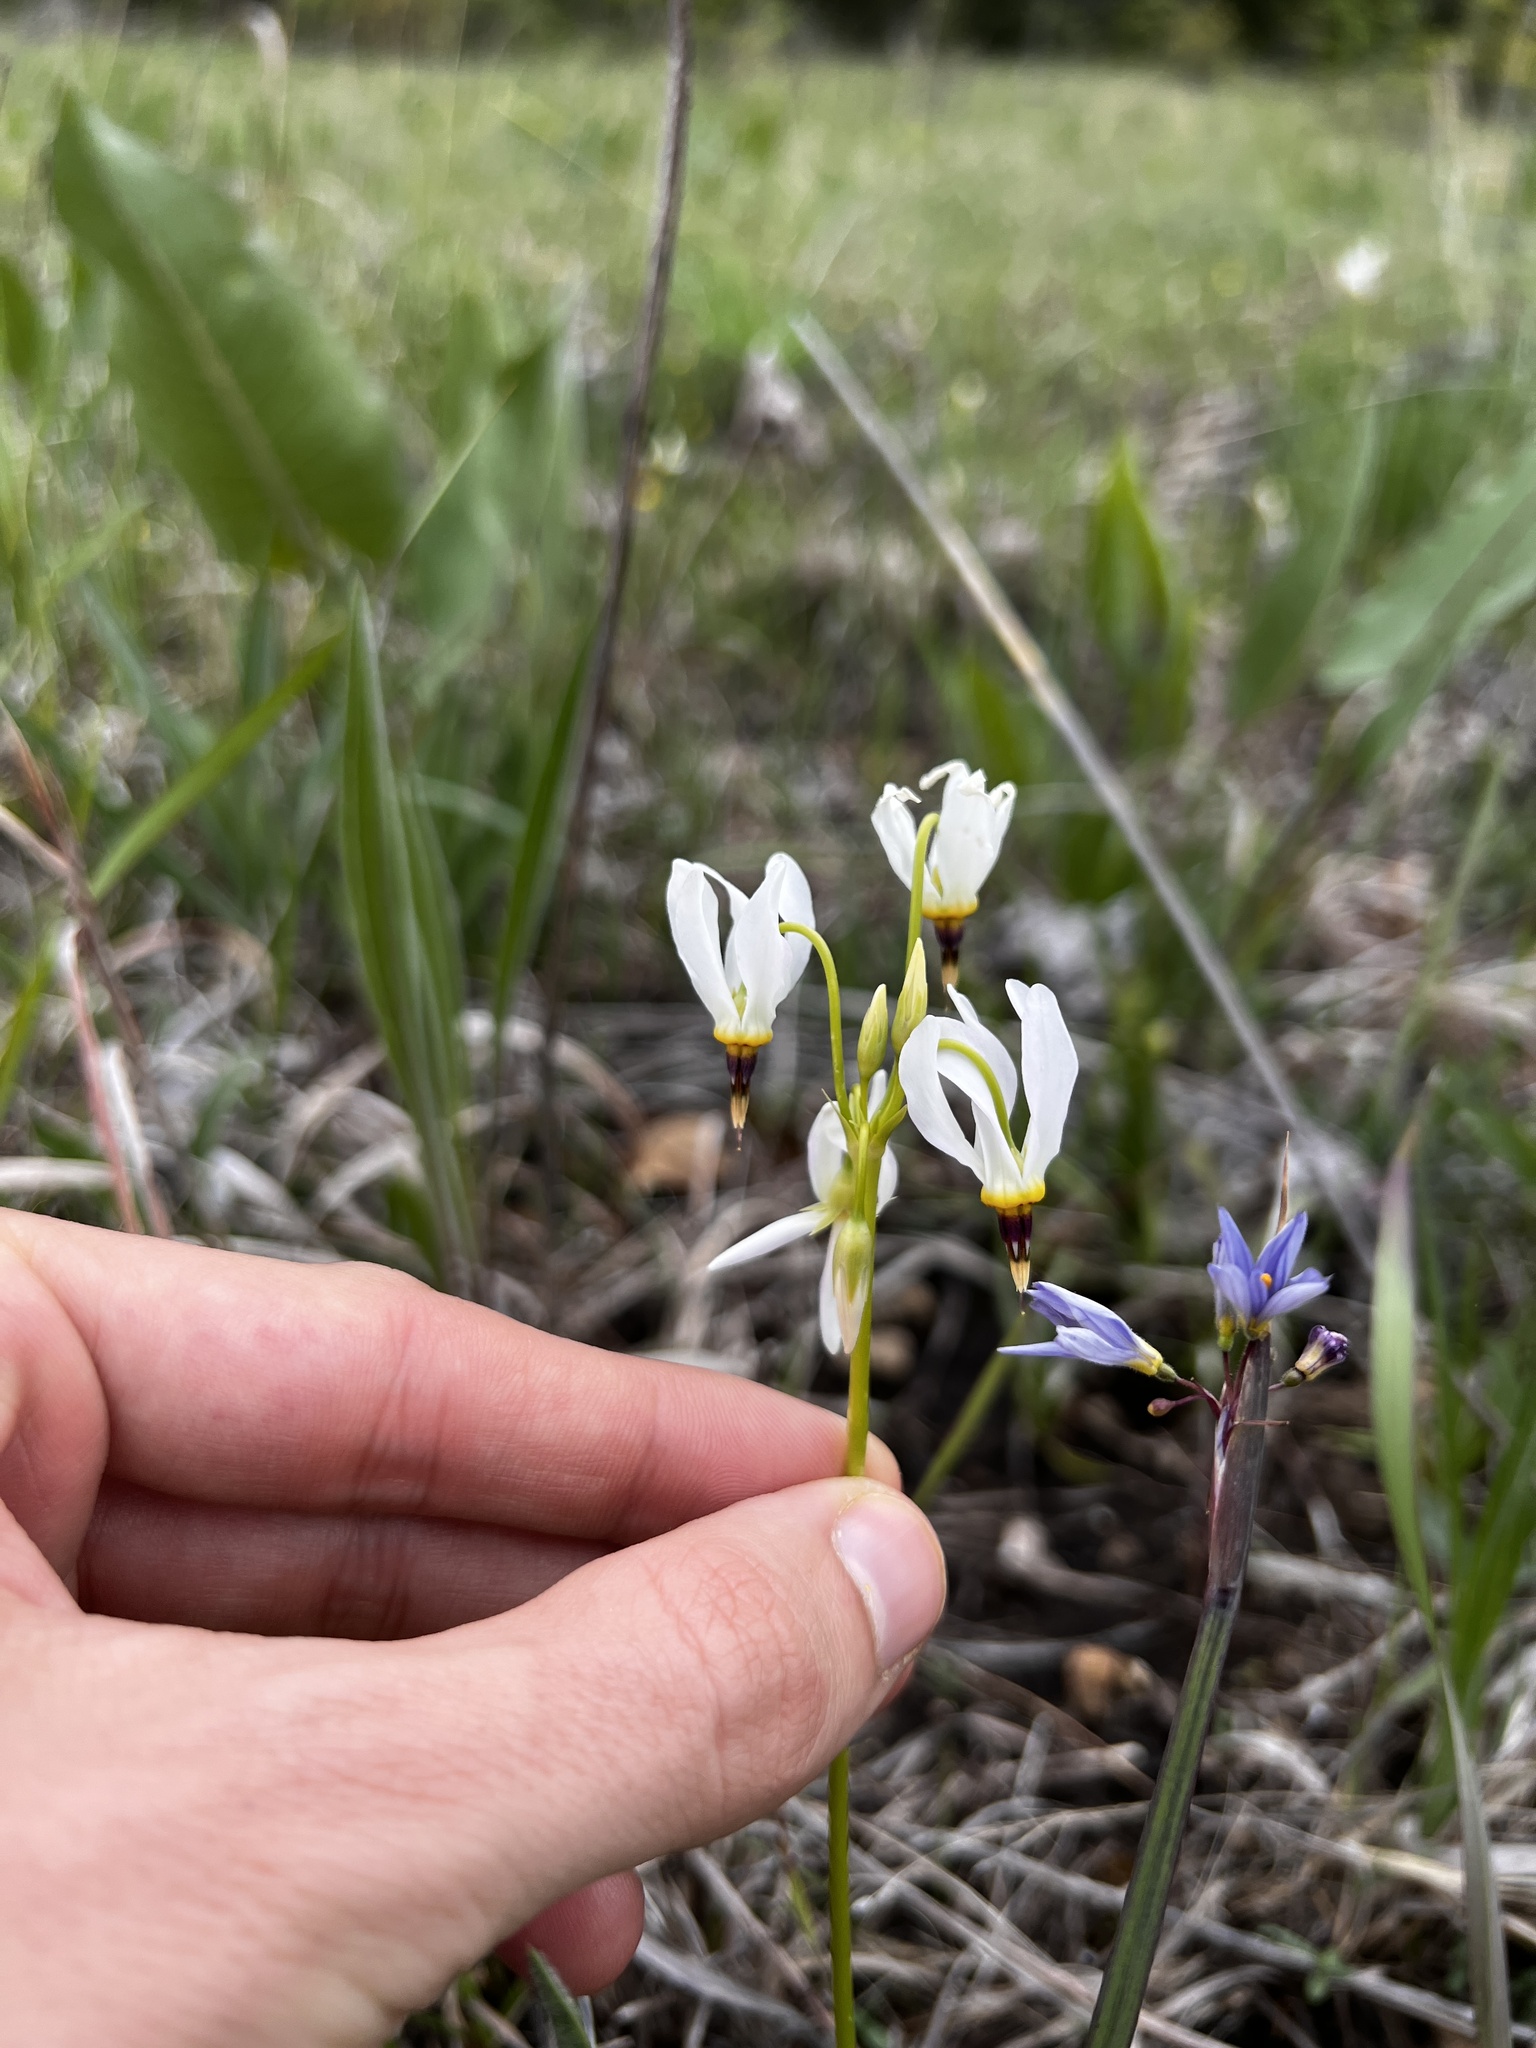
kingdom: Plantae
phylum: Tracheophyta
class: Magnoliopsida
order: Ericales
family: Primulaceae
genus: Dodecatheon
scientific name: Dodecatheon meadia
